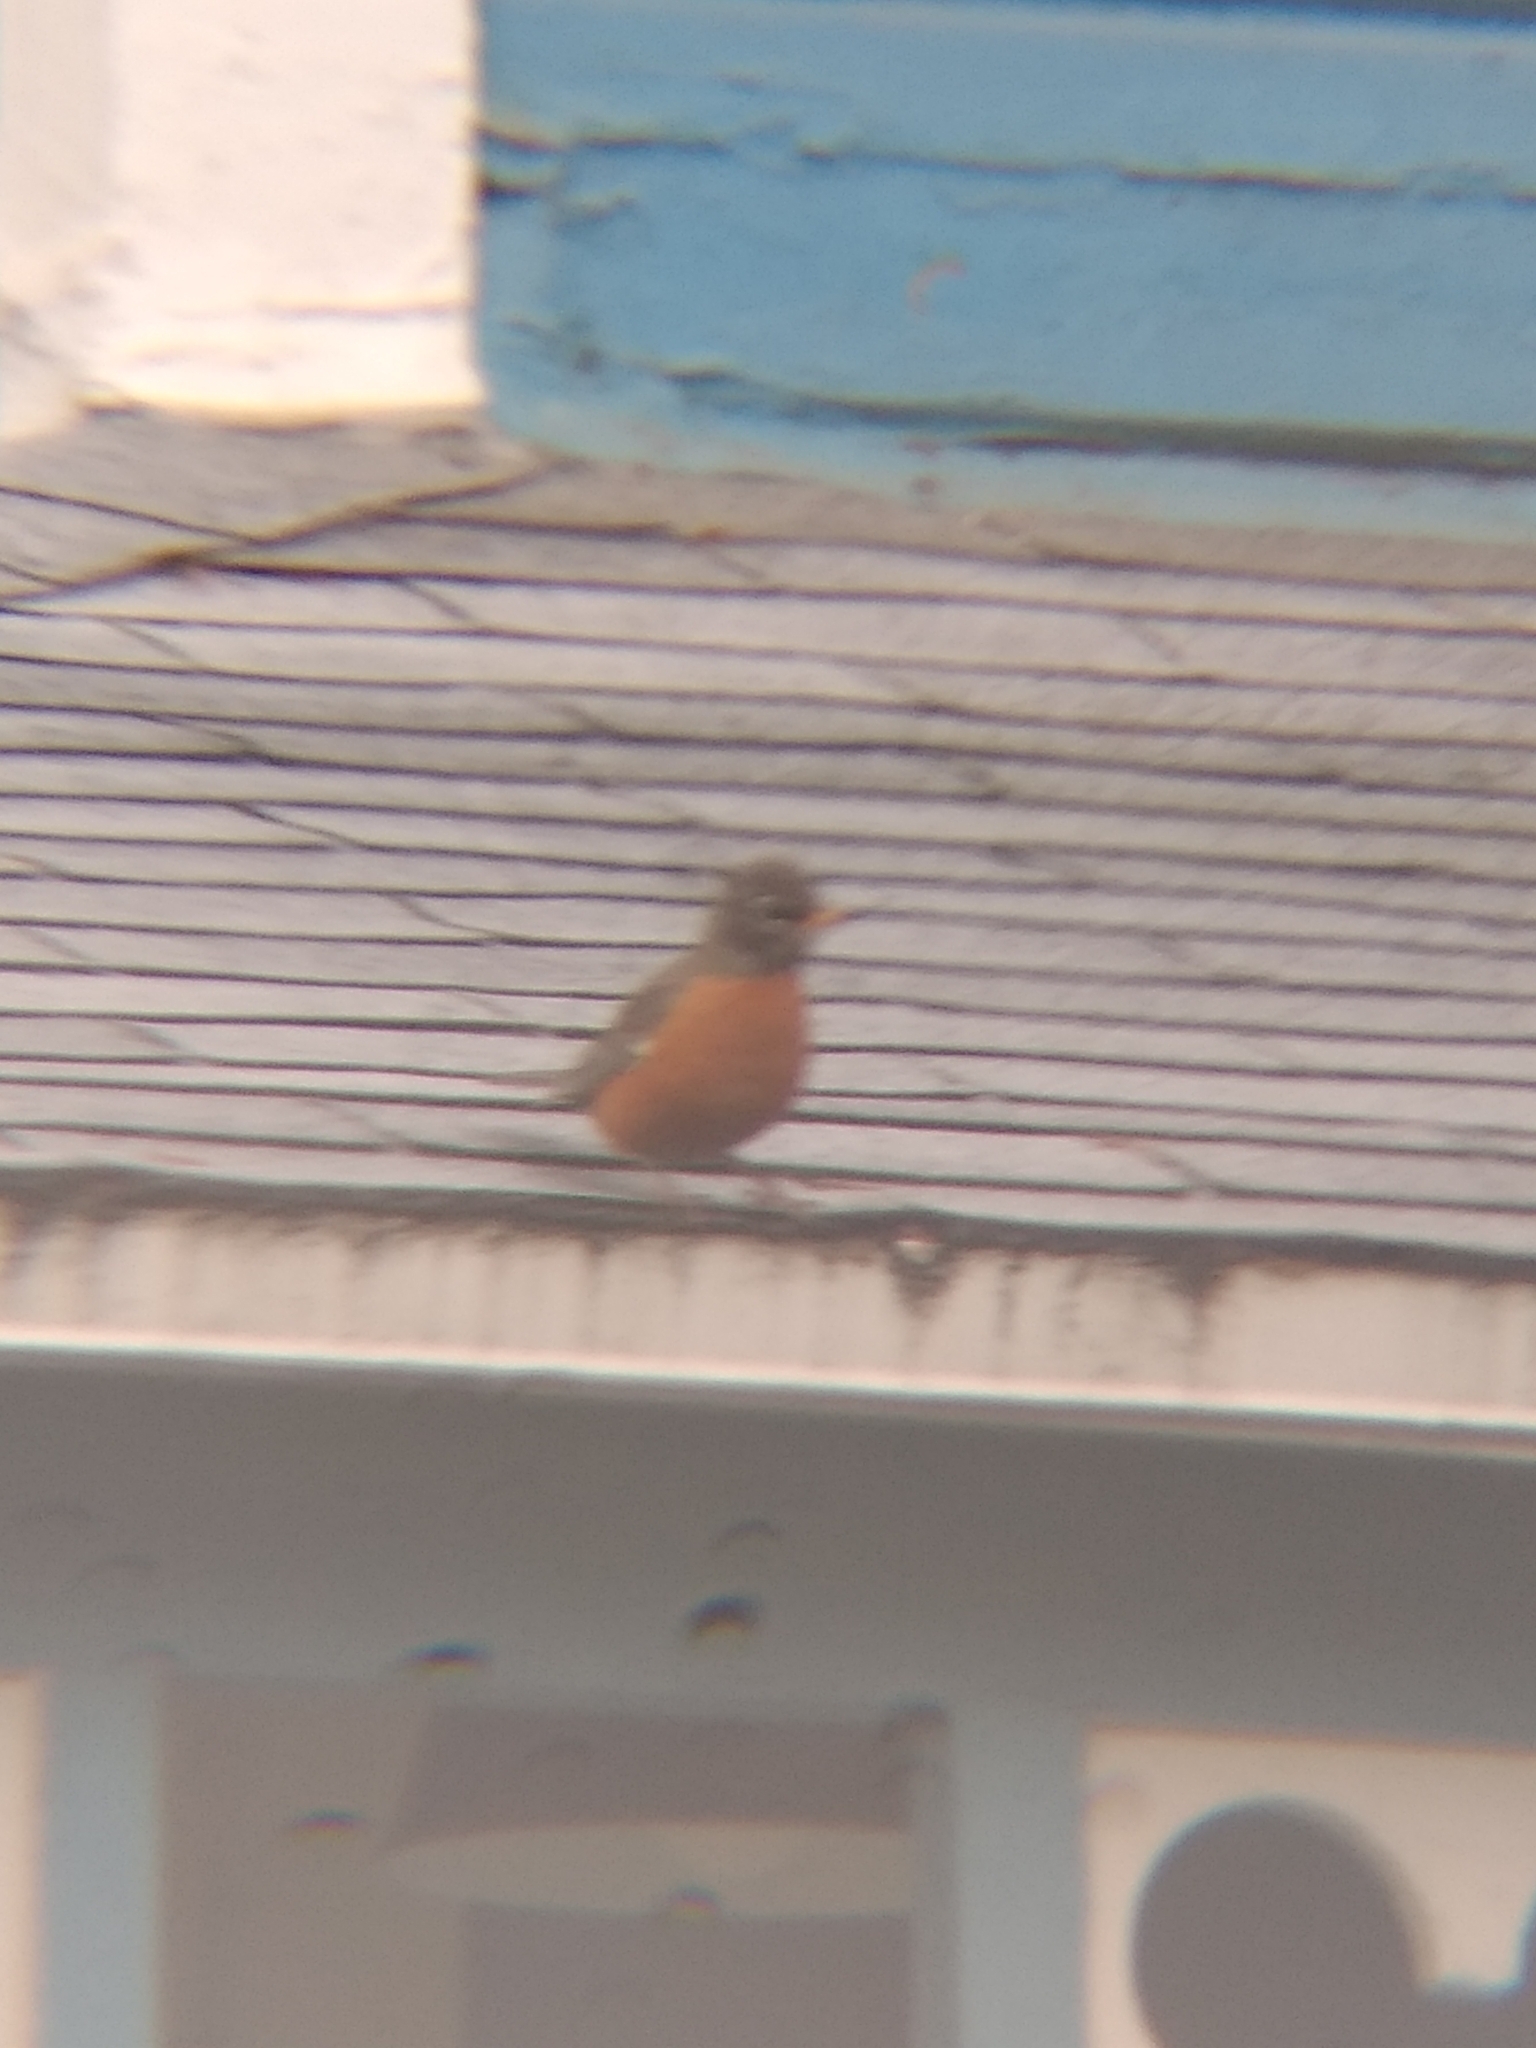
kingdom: Animalia
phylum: Chordata
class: Aves
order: Passeriformes
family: Turdidae
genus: Turdus
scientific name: Turdus migratorius
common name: American robin
